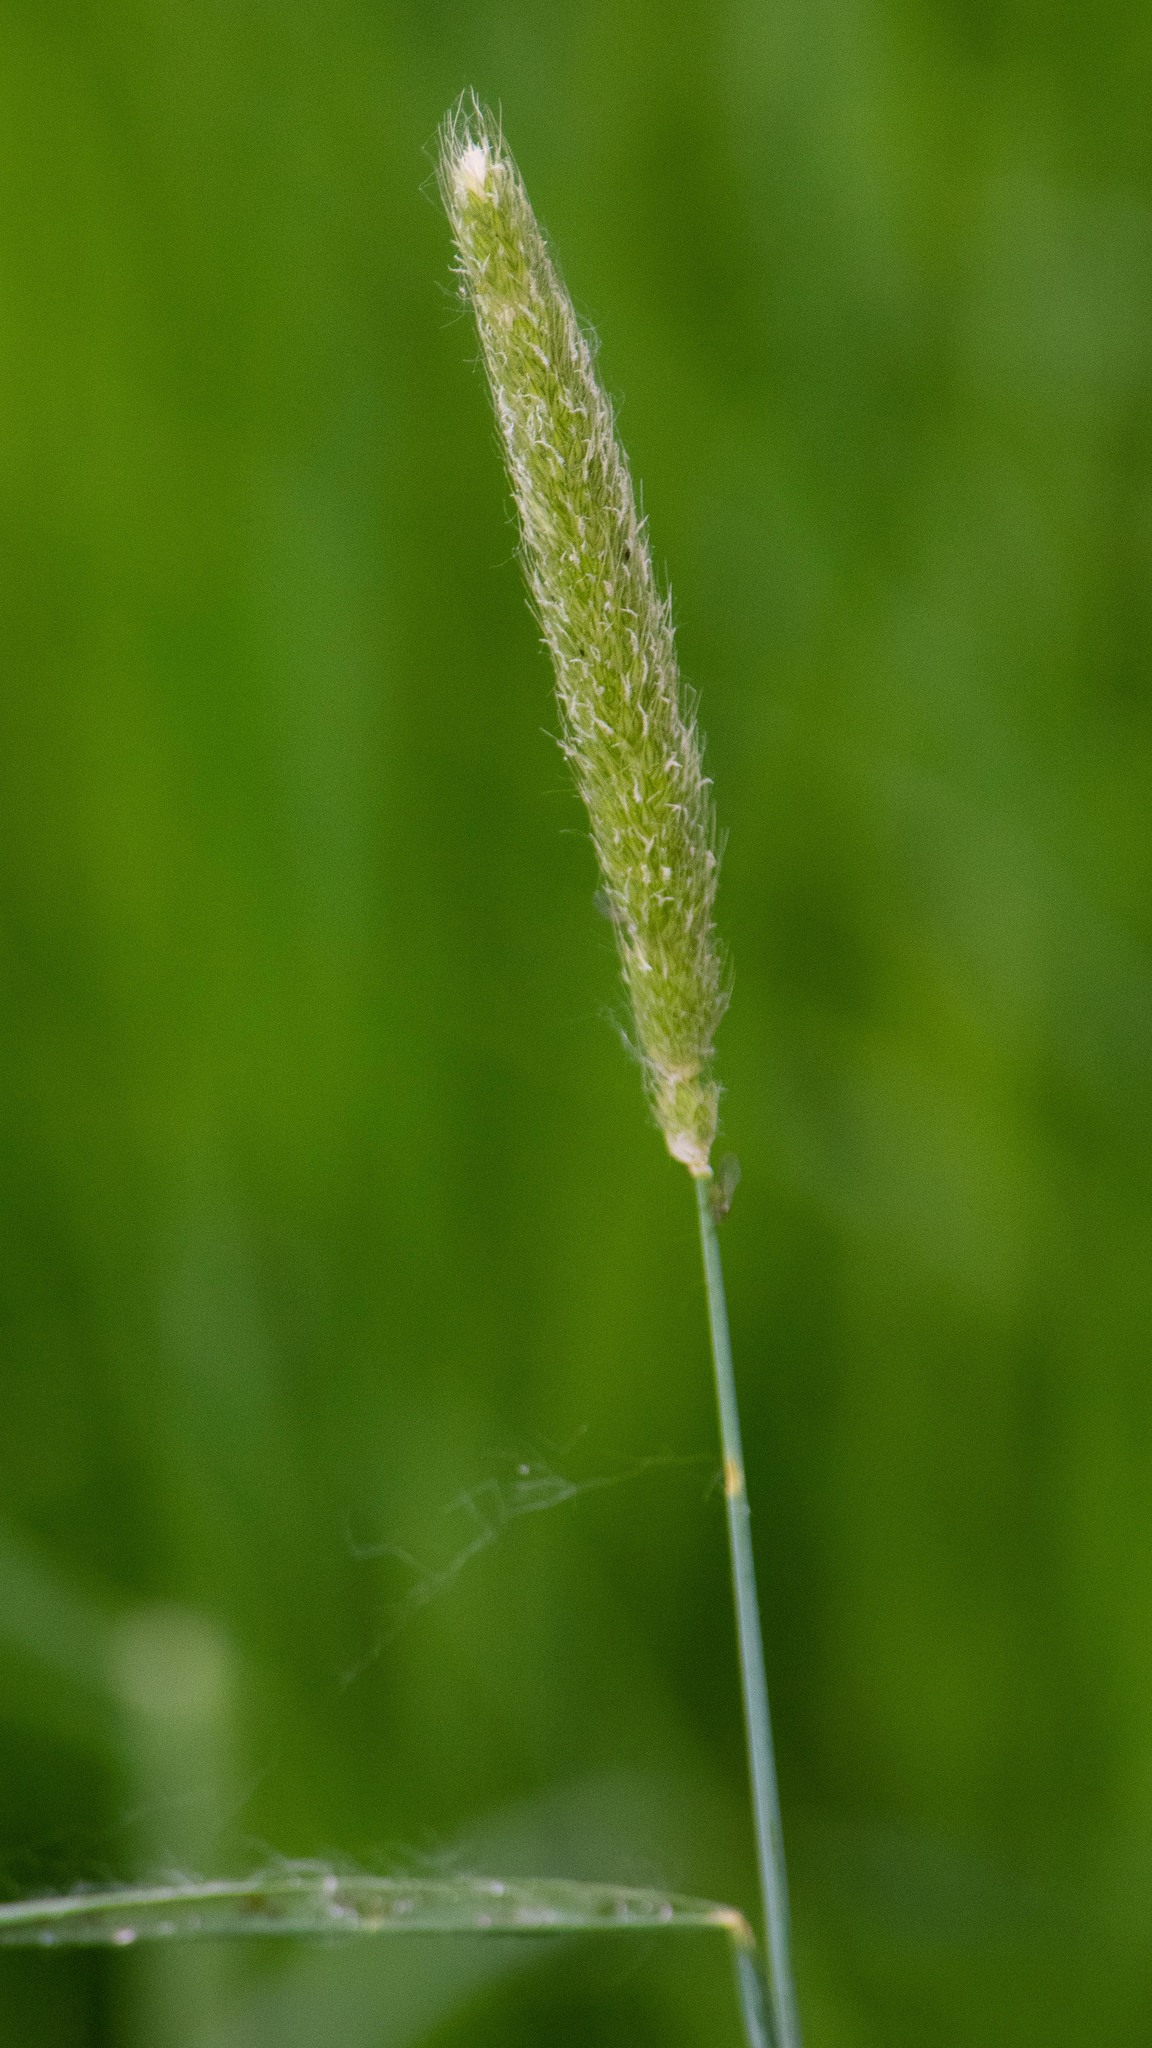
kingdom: Plantae
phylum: Tracheophyta
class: Liliopsida
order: Poales
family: Poaceae
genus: Alopecurus
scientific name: Alopecurus pratensis
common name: Meadow foxtail
